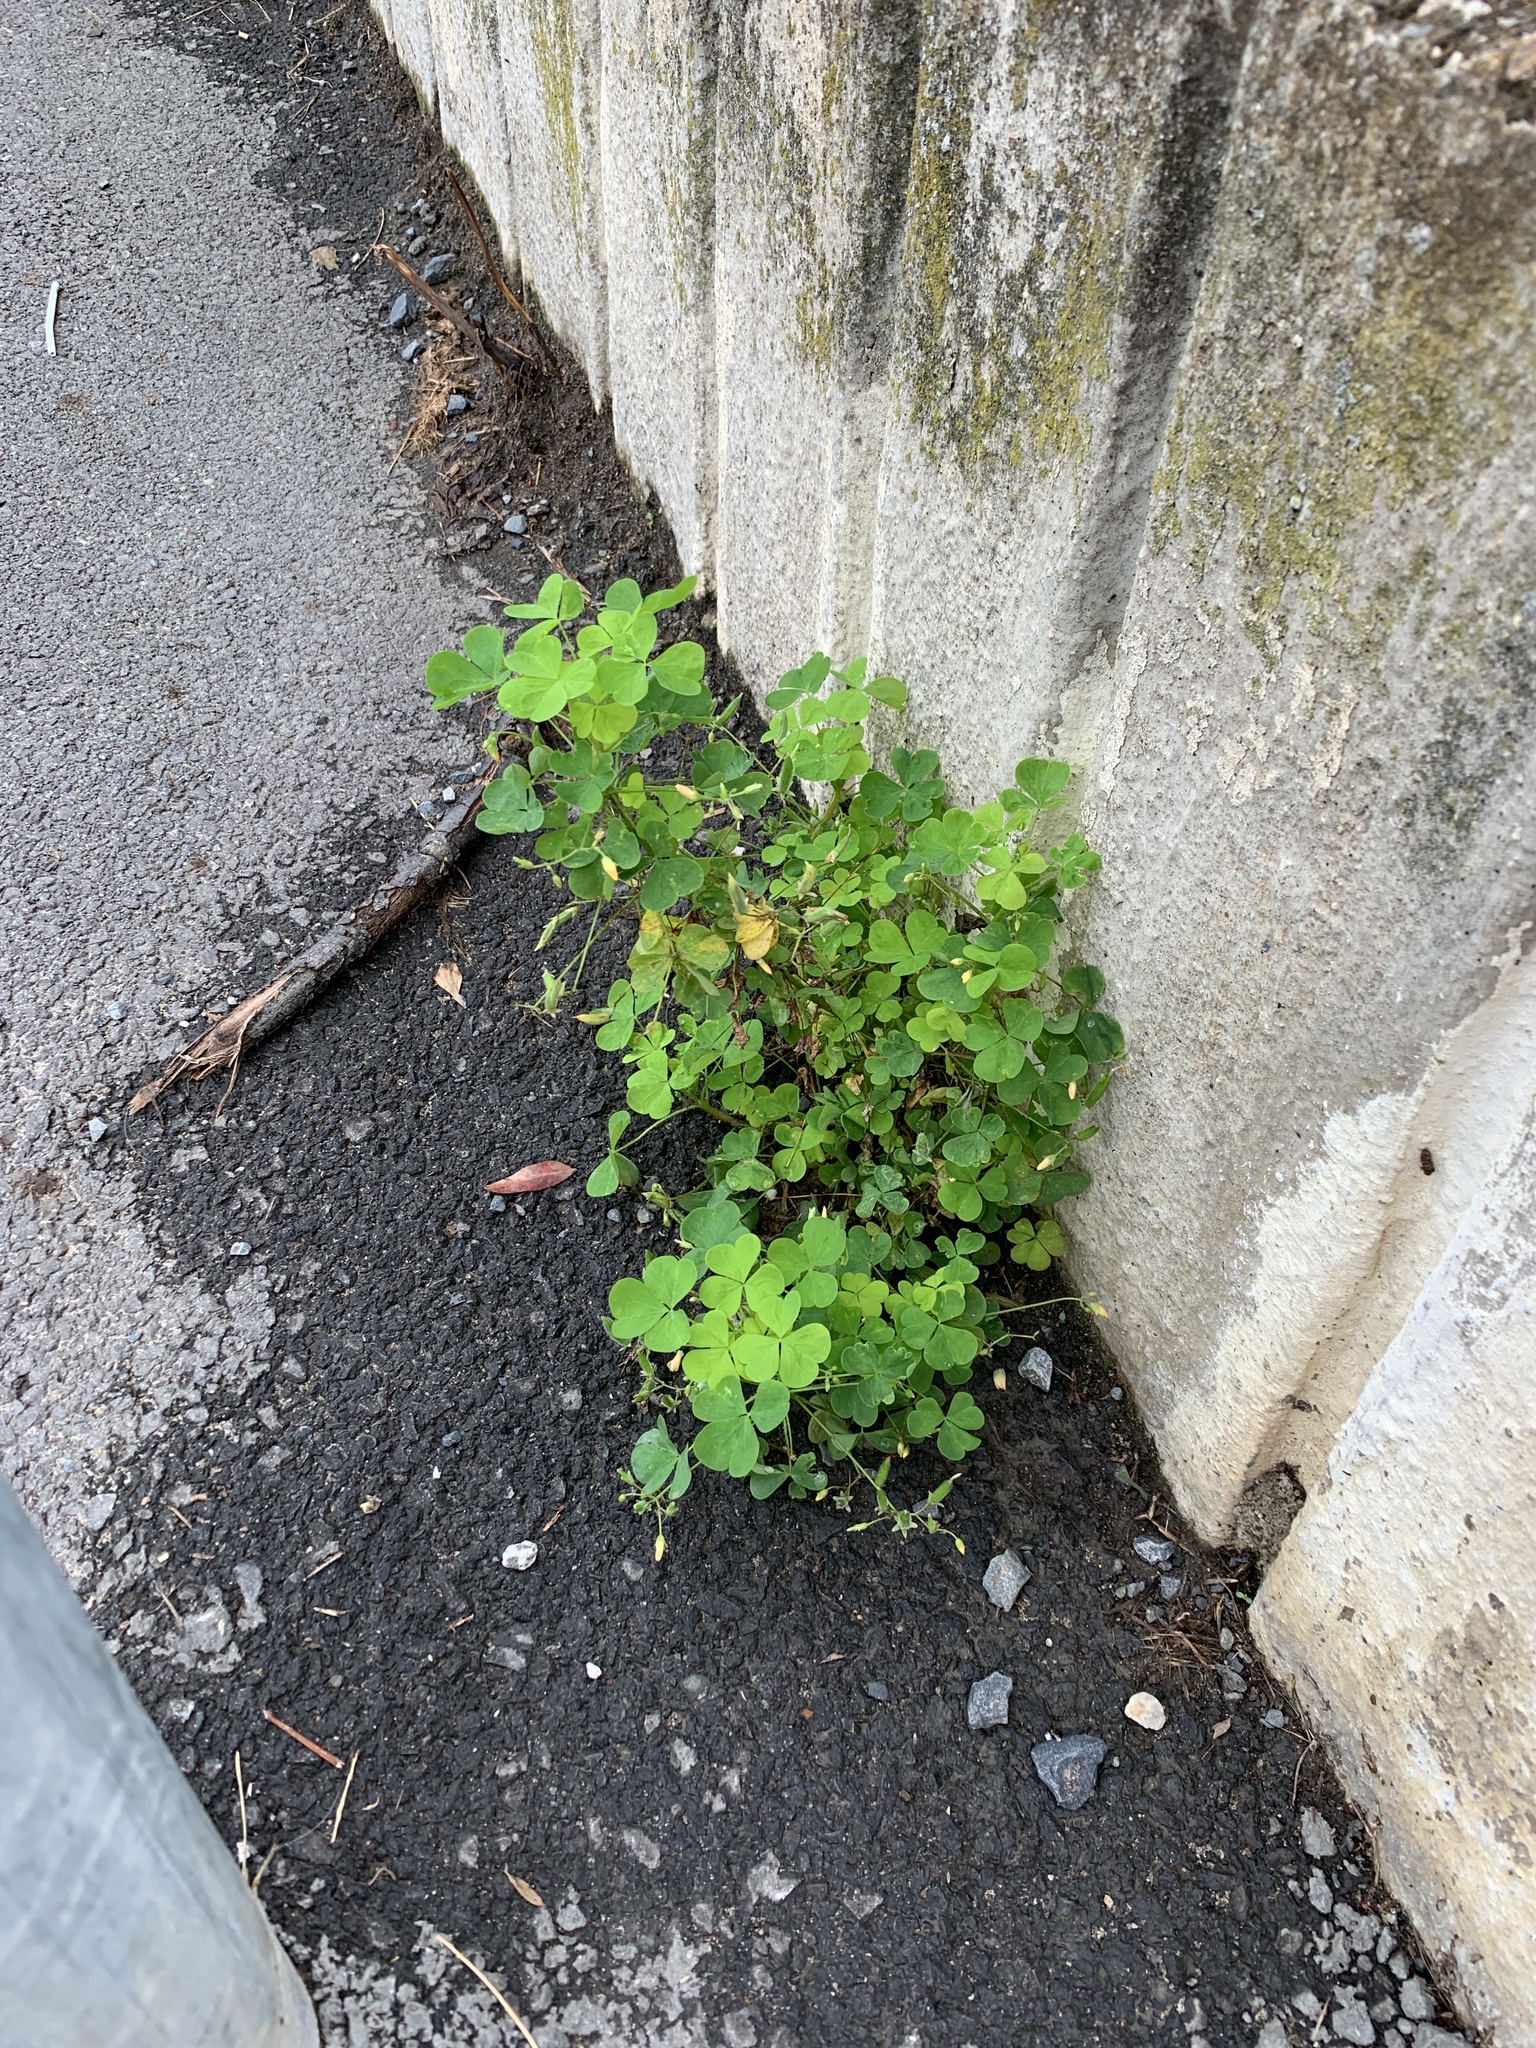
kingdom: Plantae
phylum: Tracheophyta
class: Magnoliopsida
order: Oxalidales
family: Oxalidaceae
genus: Oxalis
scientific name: Oxalis stricta
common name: Upright yellow-sorrel
